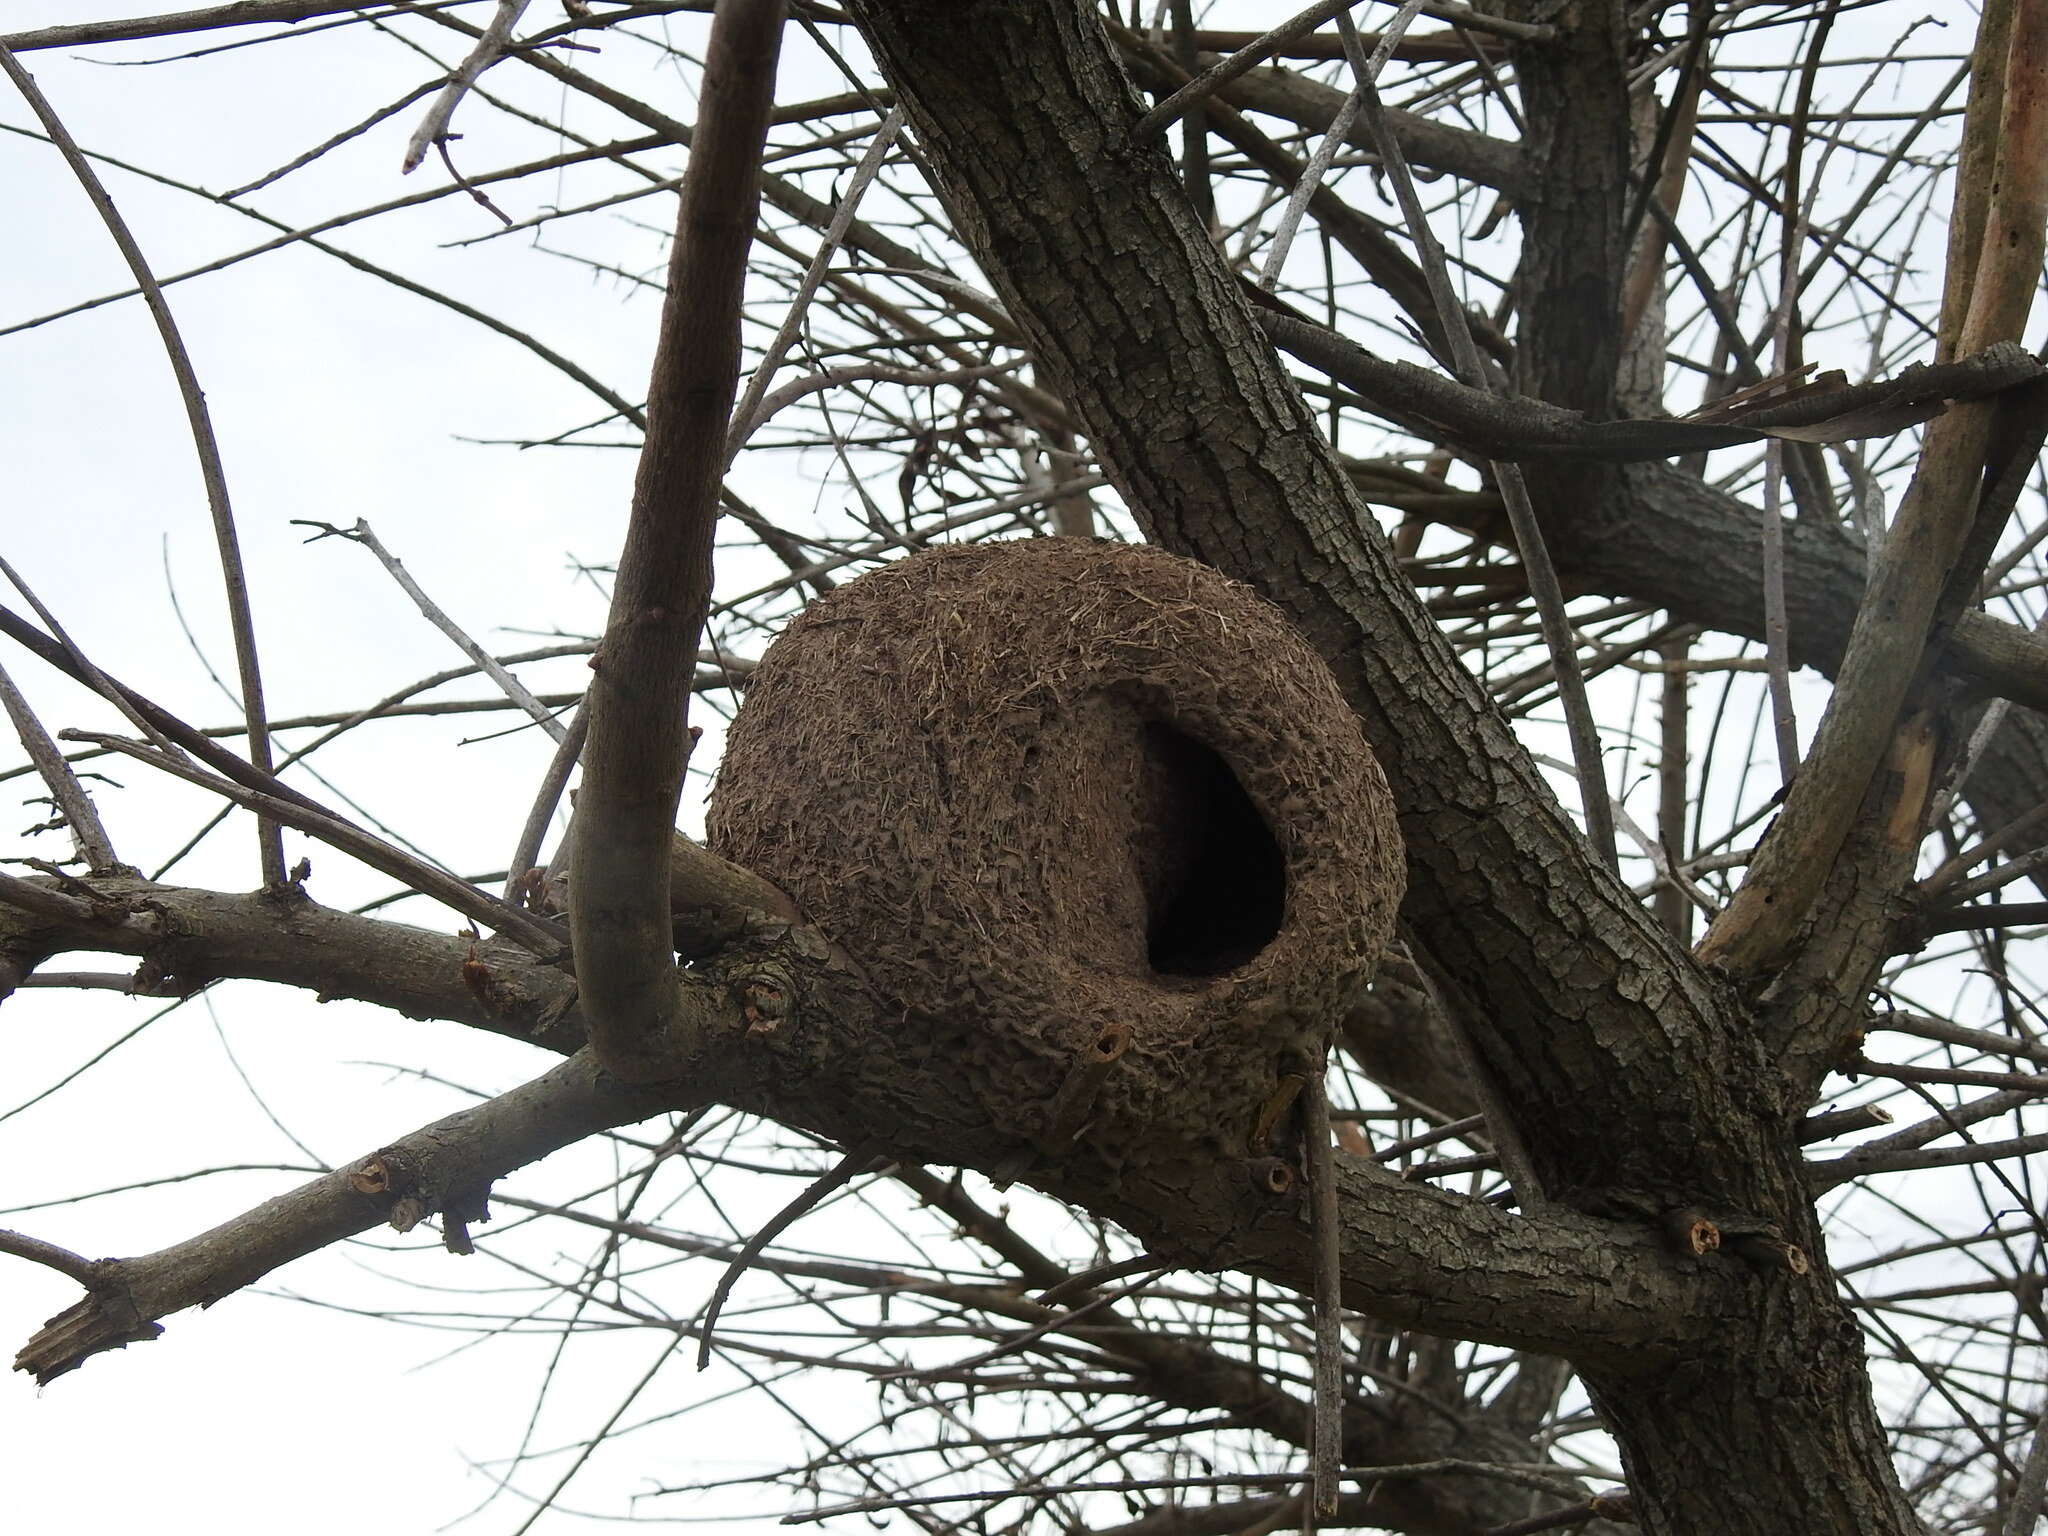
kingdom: Animalia
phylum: Chordata
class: Aves
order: Passeriformes
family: Furnariidae
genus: Furnarius
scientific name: Furnarius rufus
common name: Rufous hornero
